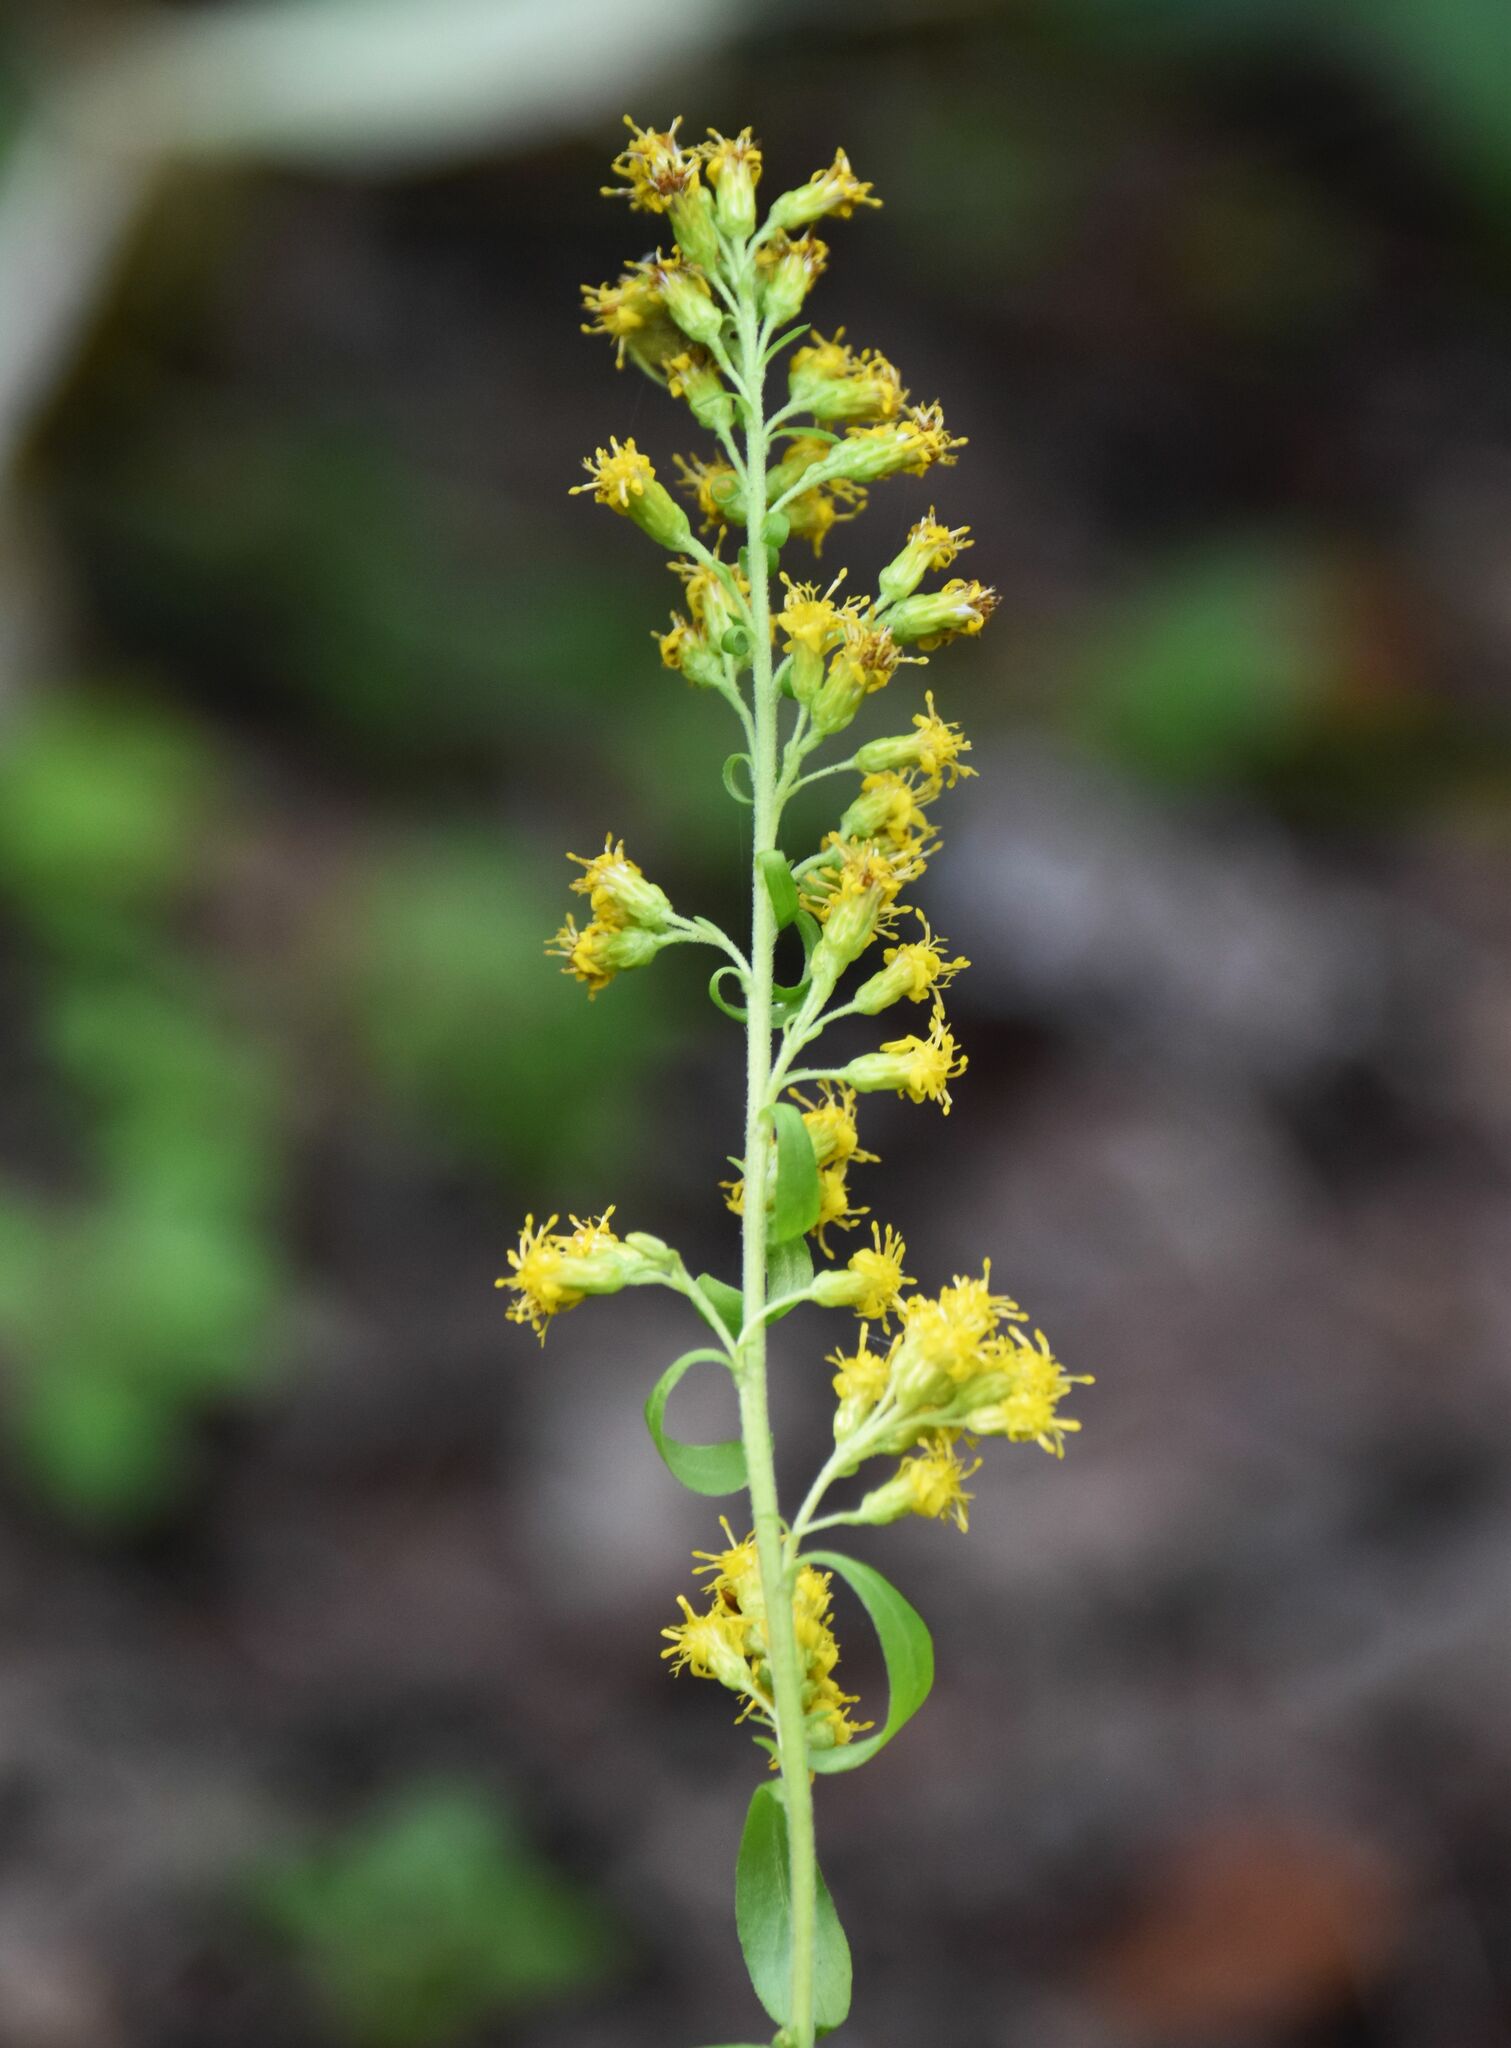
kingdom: Plantae
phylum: Tracheophyta
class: Magnoliopsida
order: Asterales
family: Asteraceae
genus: Solidago
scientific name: Solidago hispida
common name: Hairy goldenrod
